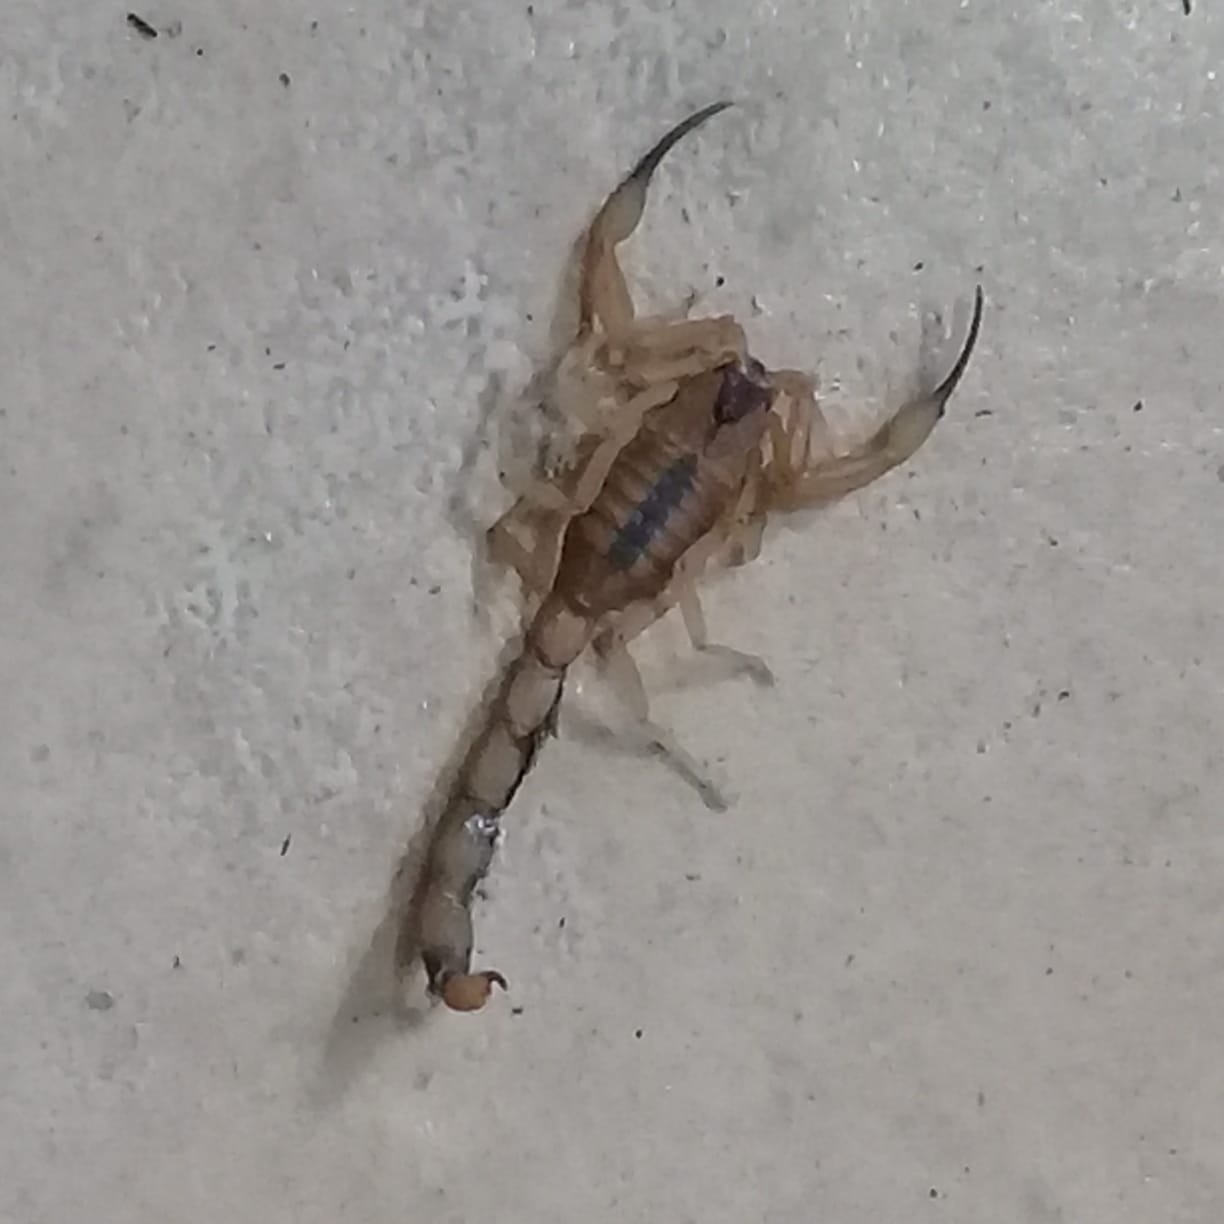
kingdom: Animalia
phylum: Arthropoda
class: Arachnida
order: Scorpiones
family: Buthidae
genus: Tityus
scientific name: Tityus stigmurus
